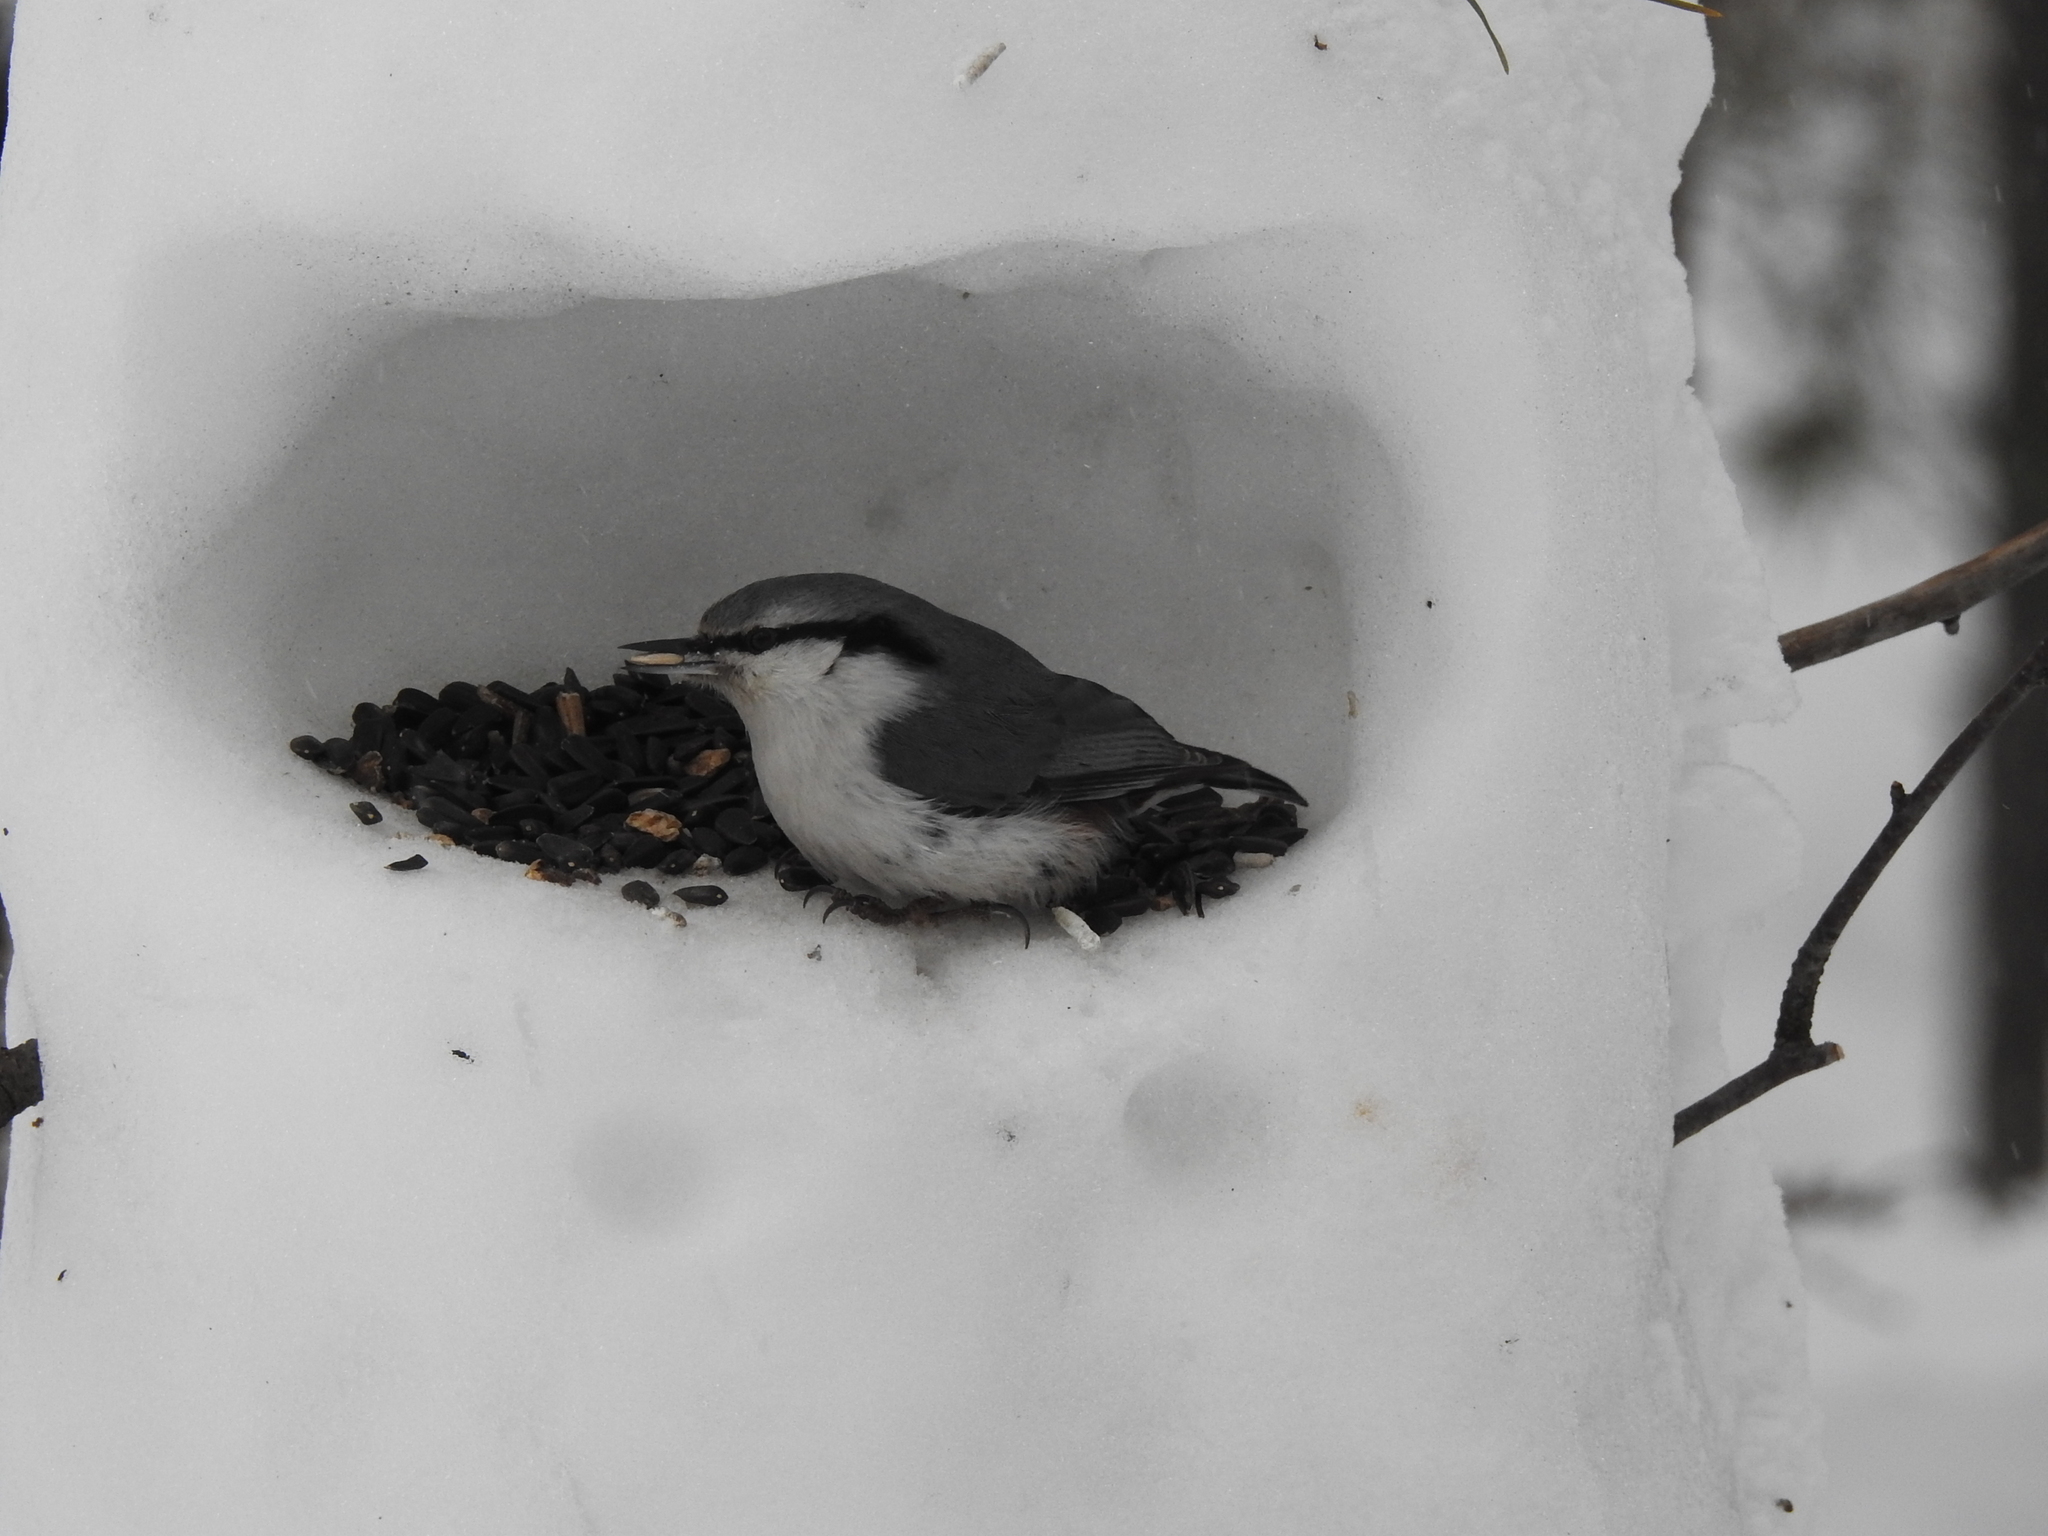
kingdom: Animalia
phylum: Chordata
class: Aves
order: Passeriformes
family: Sittidae
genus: Sitta
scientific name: Sitta europaea
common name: Eurasian nuthatch
